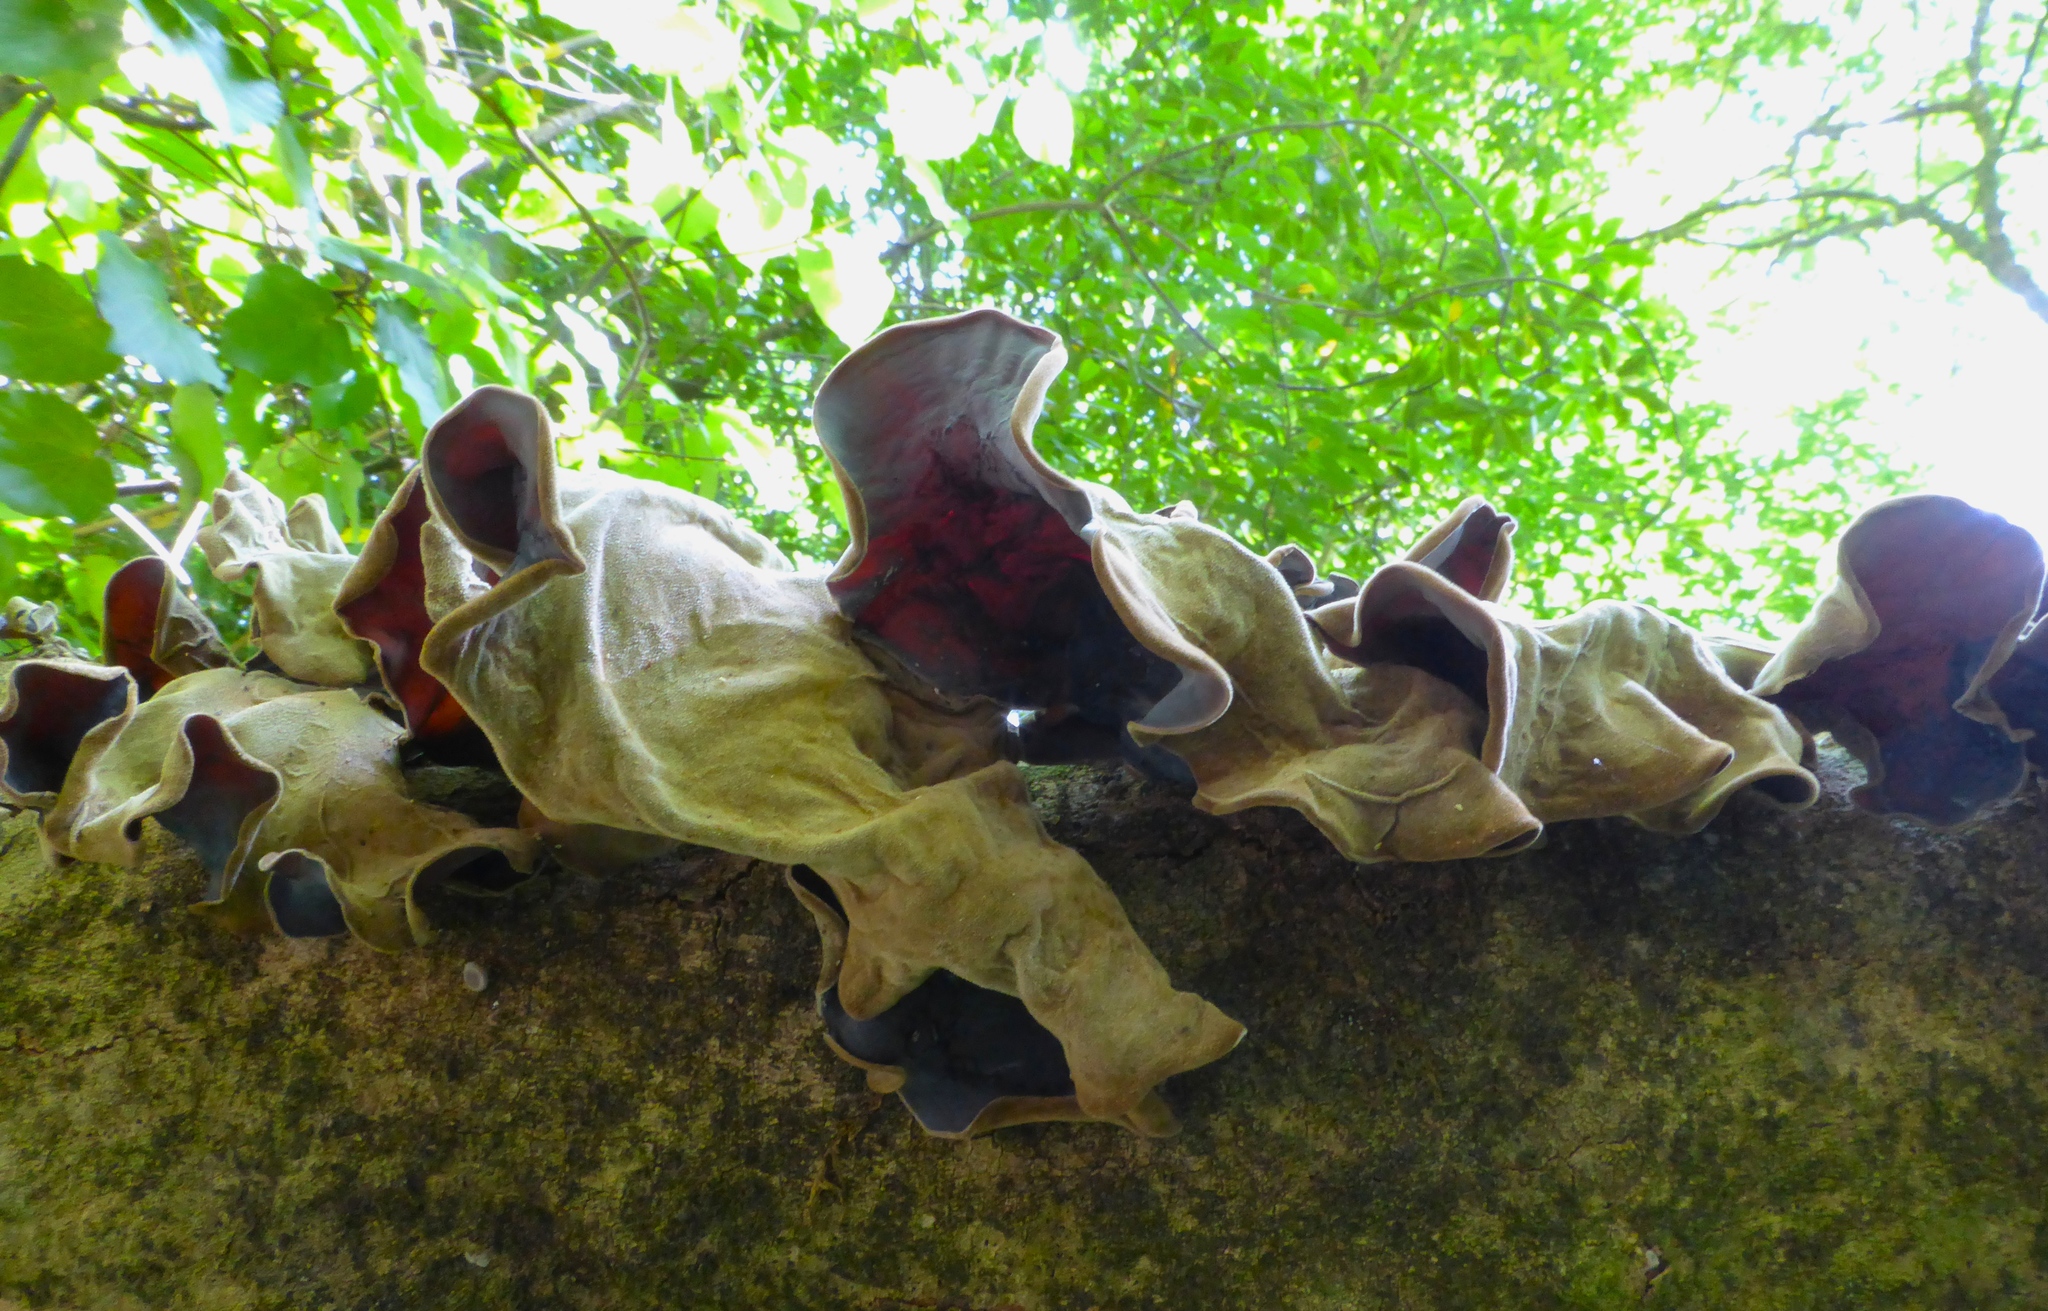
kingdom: Fungi
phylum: Basidiomycota
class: Agaricomycetes
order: Auriculariales
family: Auriculariaceae
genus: Auricularia
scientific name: Auricularia cornea
